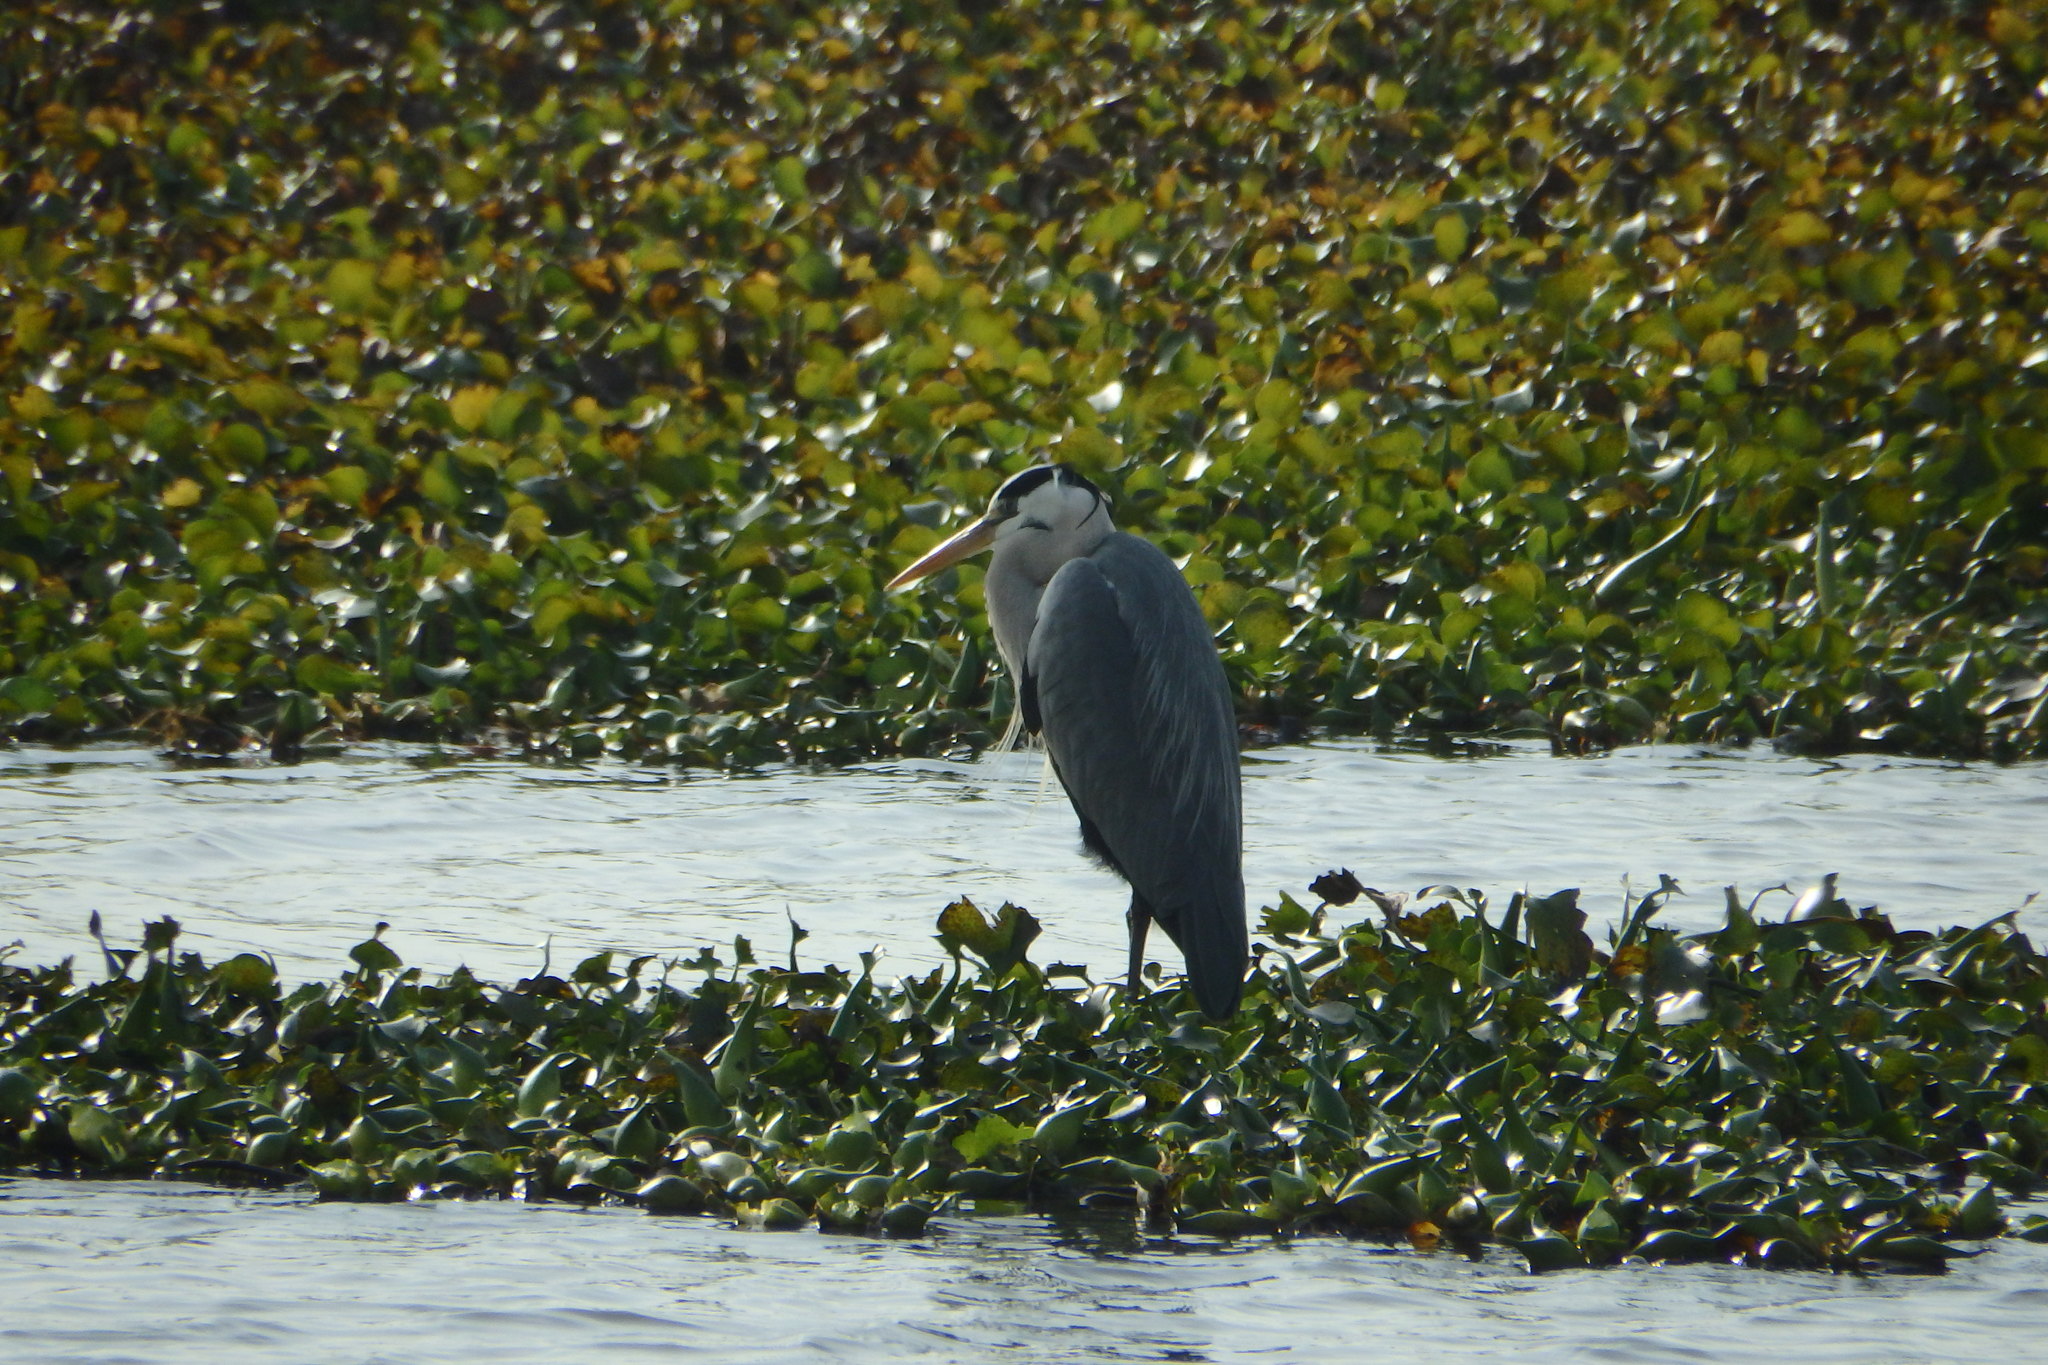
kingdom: Animalia
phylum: Chordata
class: Aves
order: Pelecaniformes
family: Ardeidae
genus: Ardea
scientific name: Ardea cinerea
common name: Grey heron
